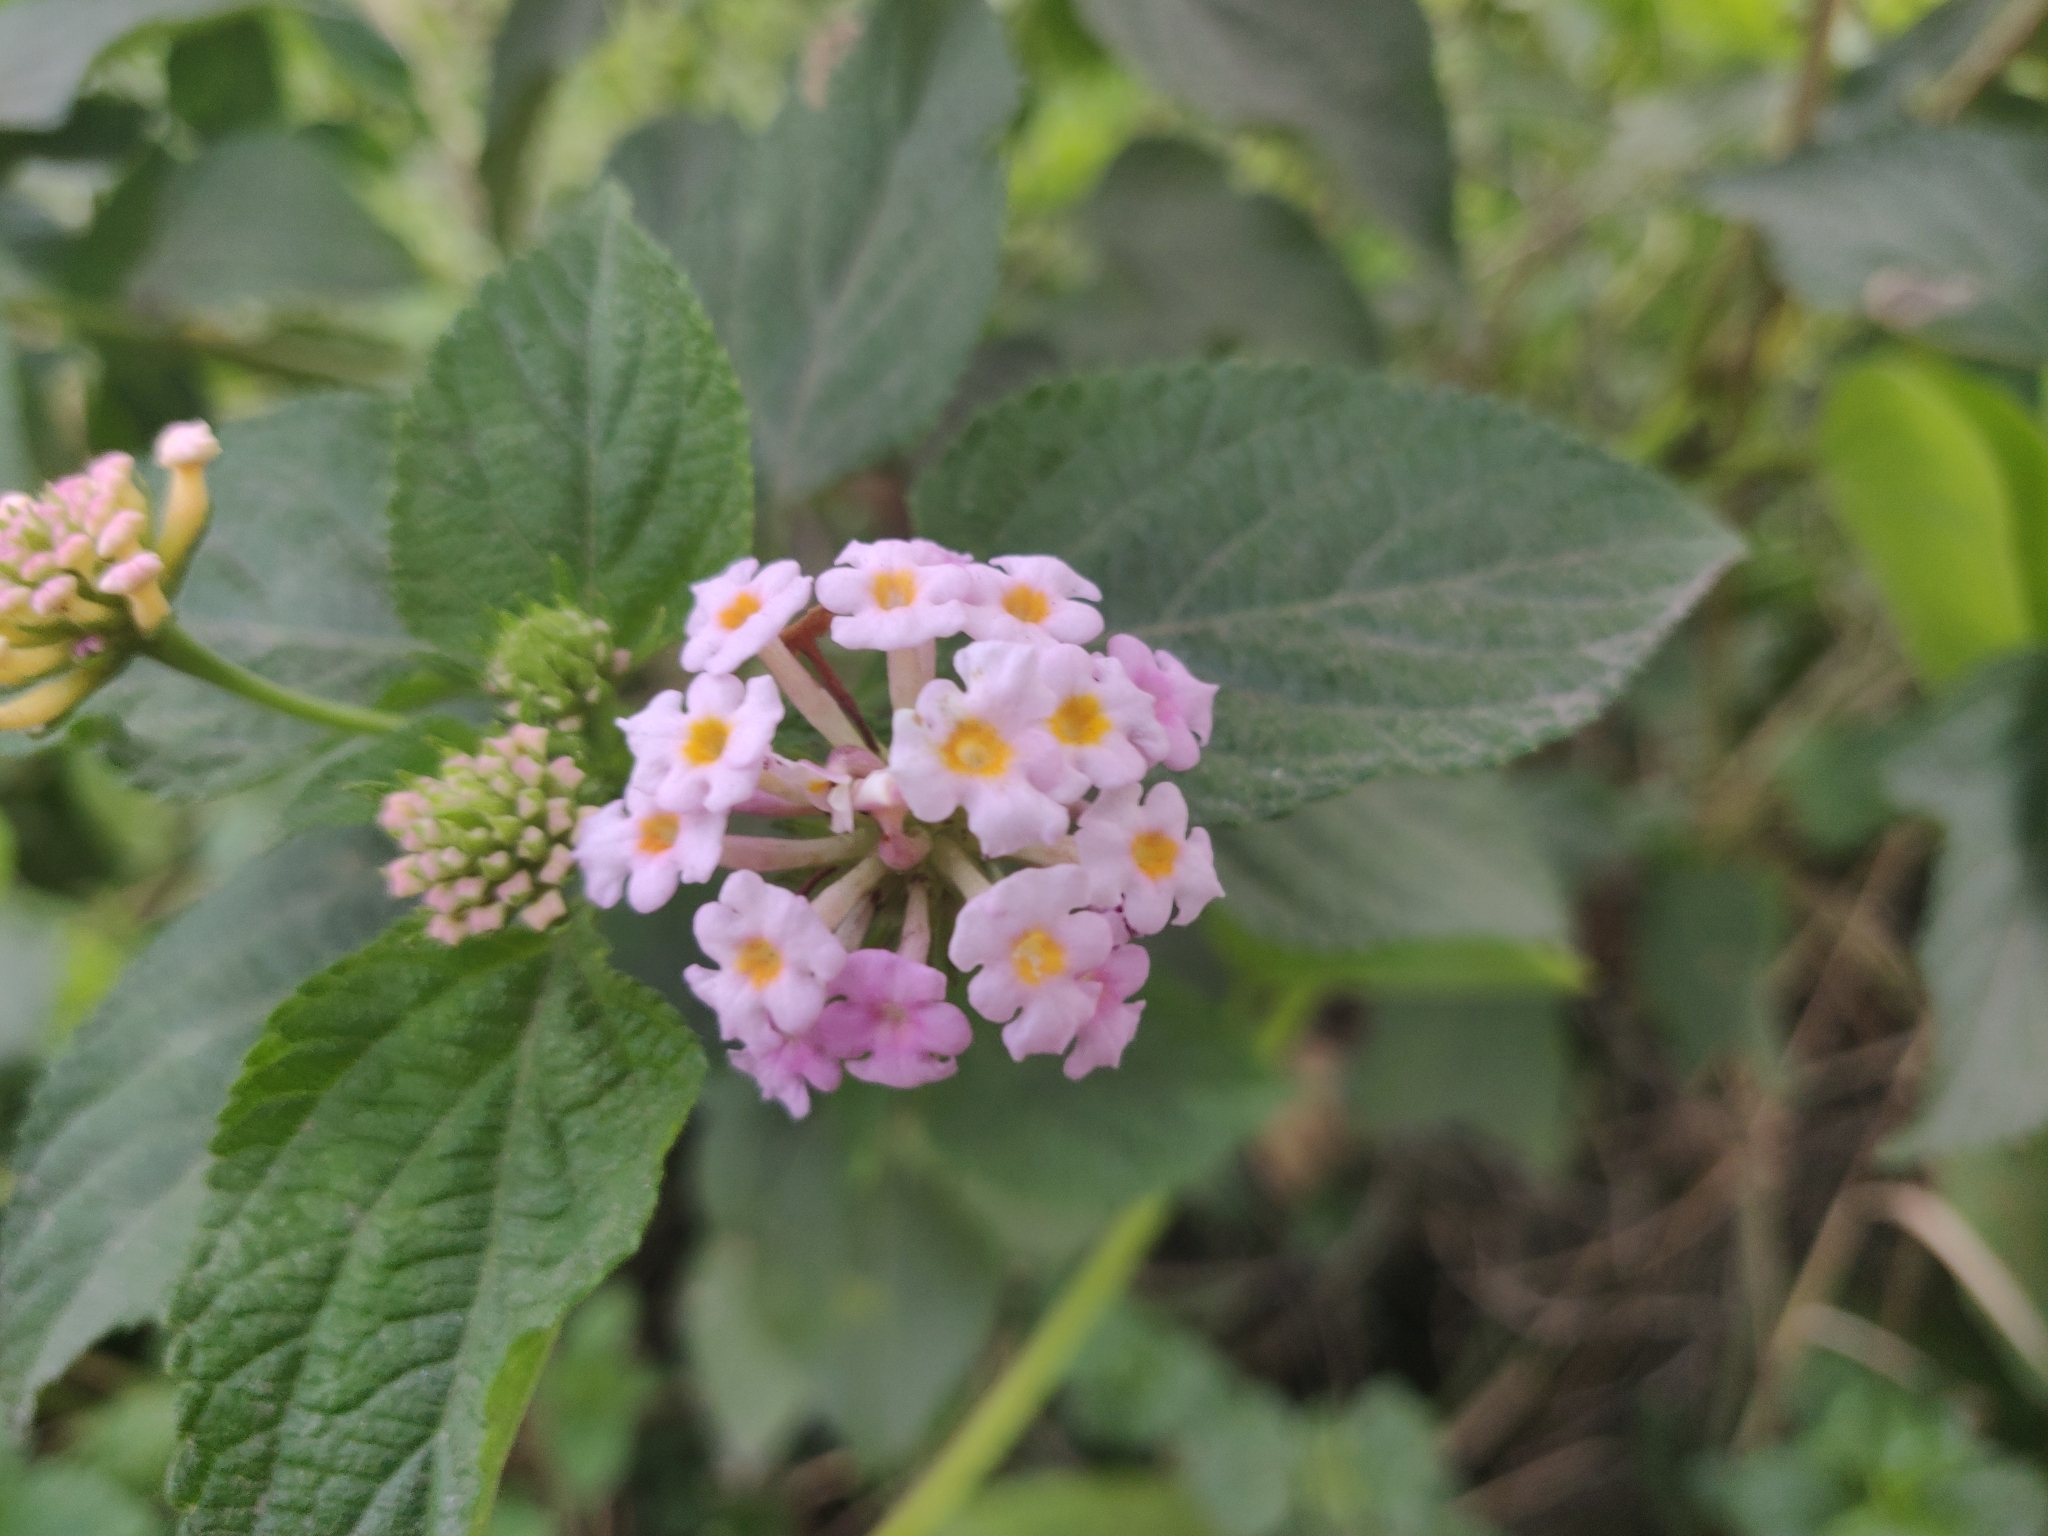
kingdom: Plantae
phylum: Tracheophyta
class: Magnoliopsida
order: Lamiales
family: Verbenaceae
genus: Lantana
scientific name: Lantana camara
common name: Lantana
